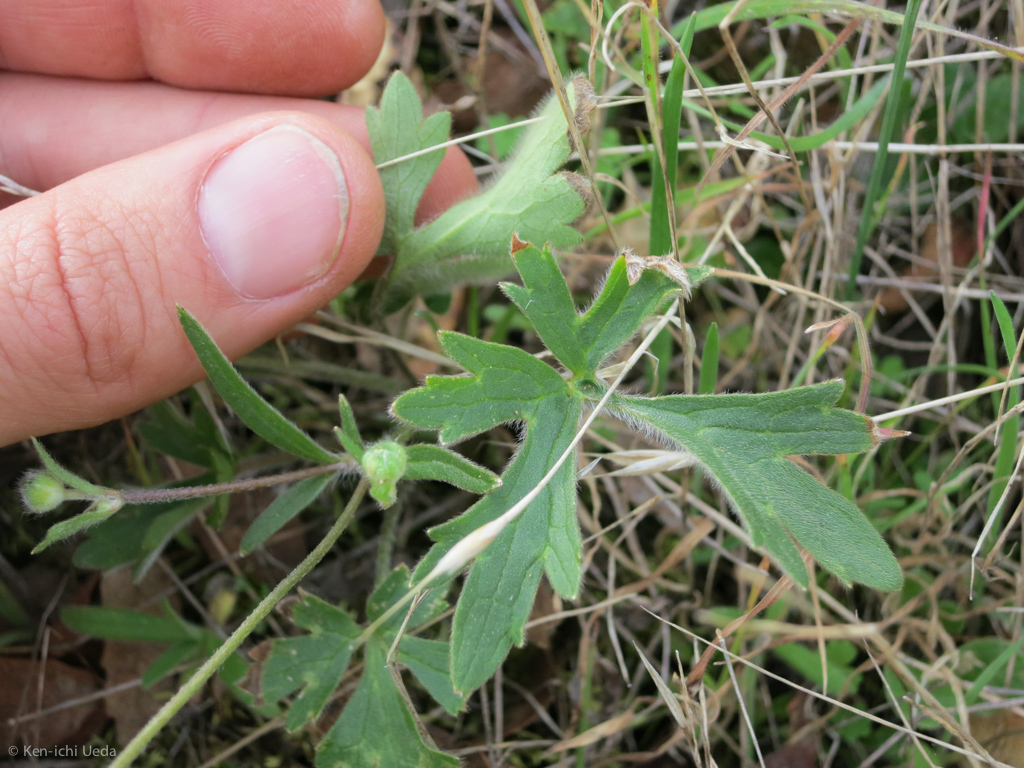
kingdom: Plantae
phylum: Tracheophyta
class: Magnoliopsida
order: Ranunculales
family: Ranunculaceae
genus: Ranunculus
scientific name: Ranunculus californicus
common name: California buttercup
